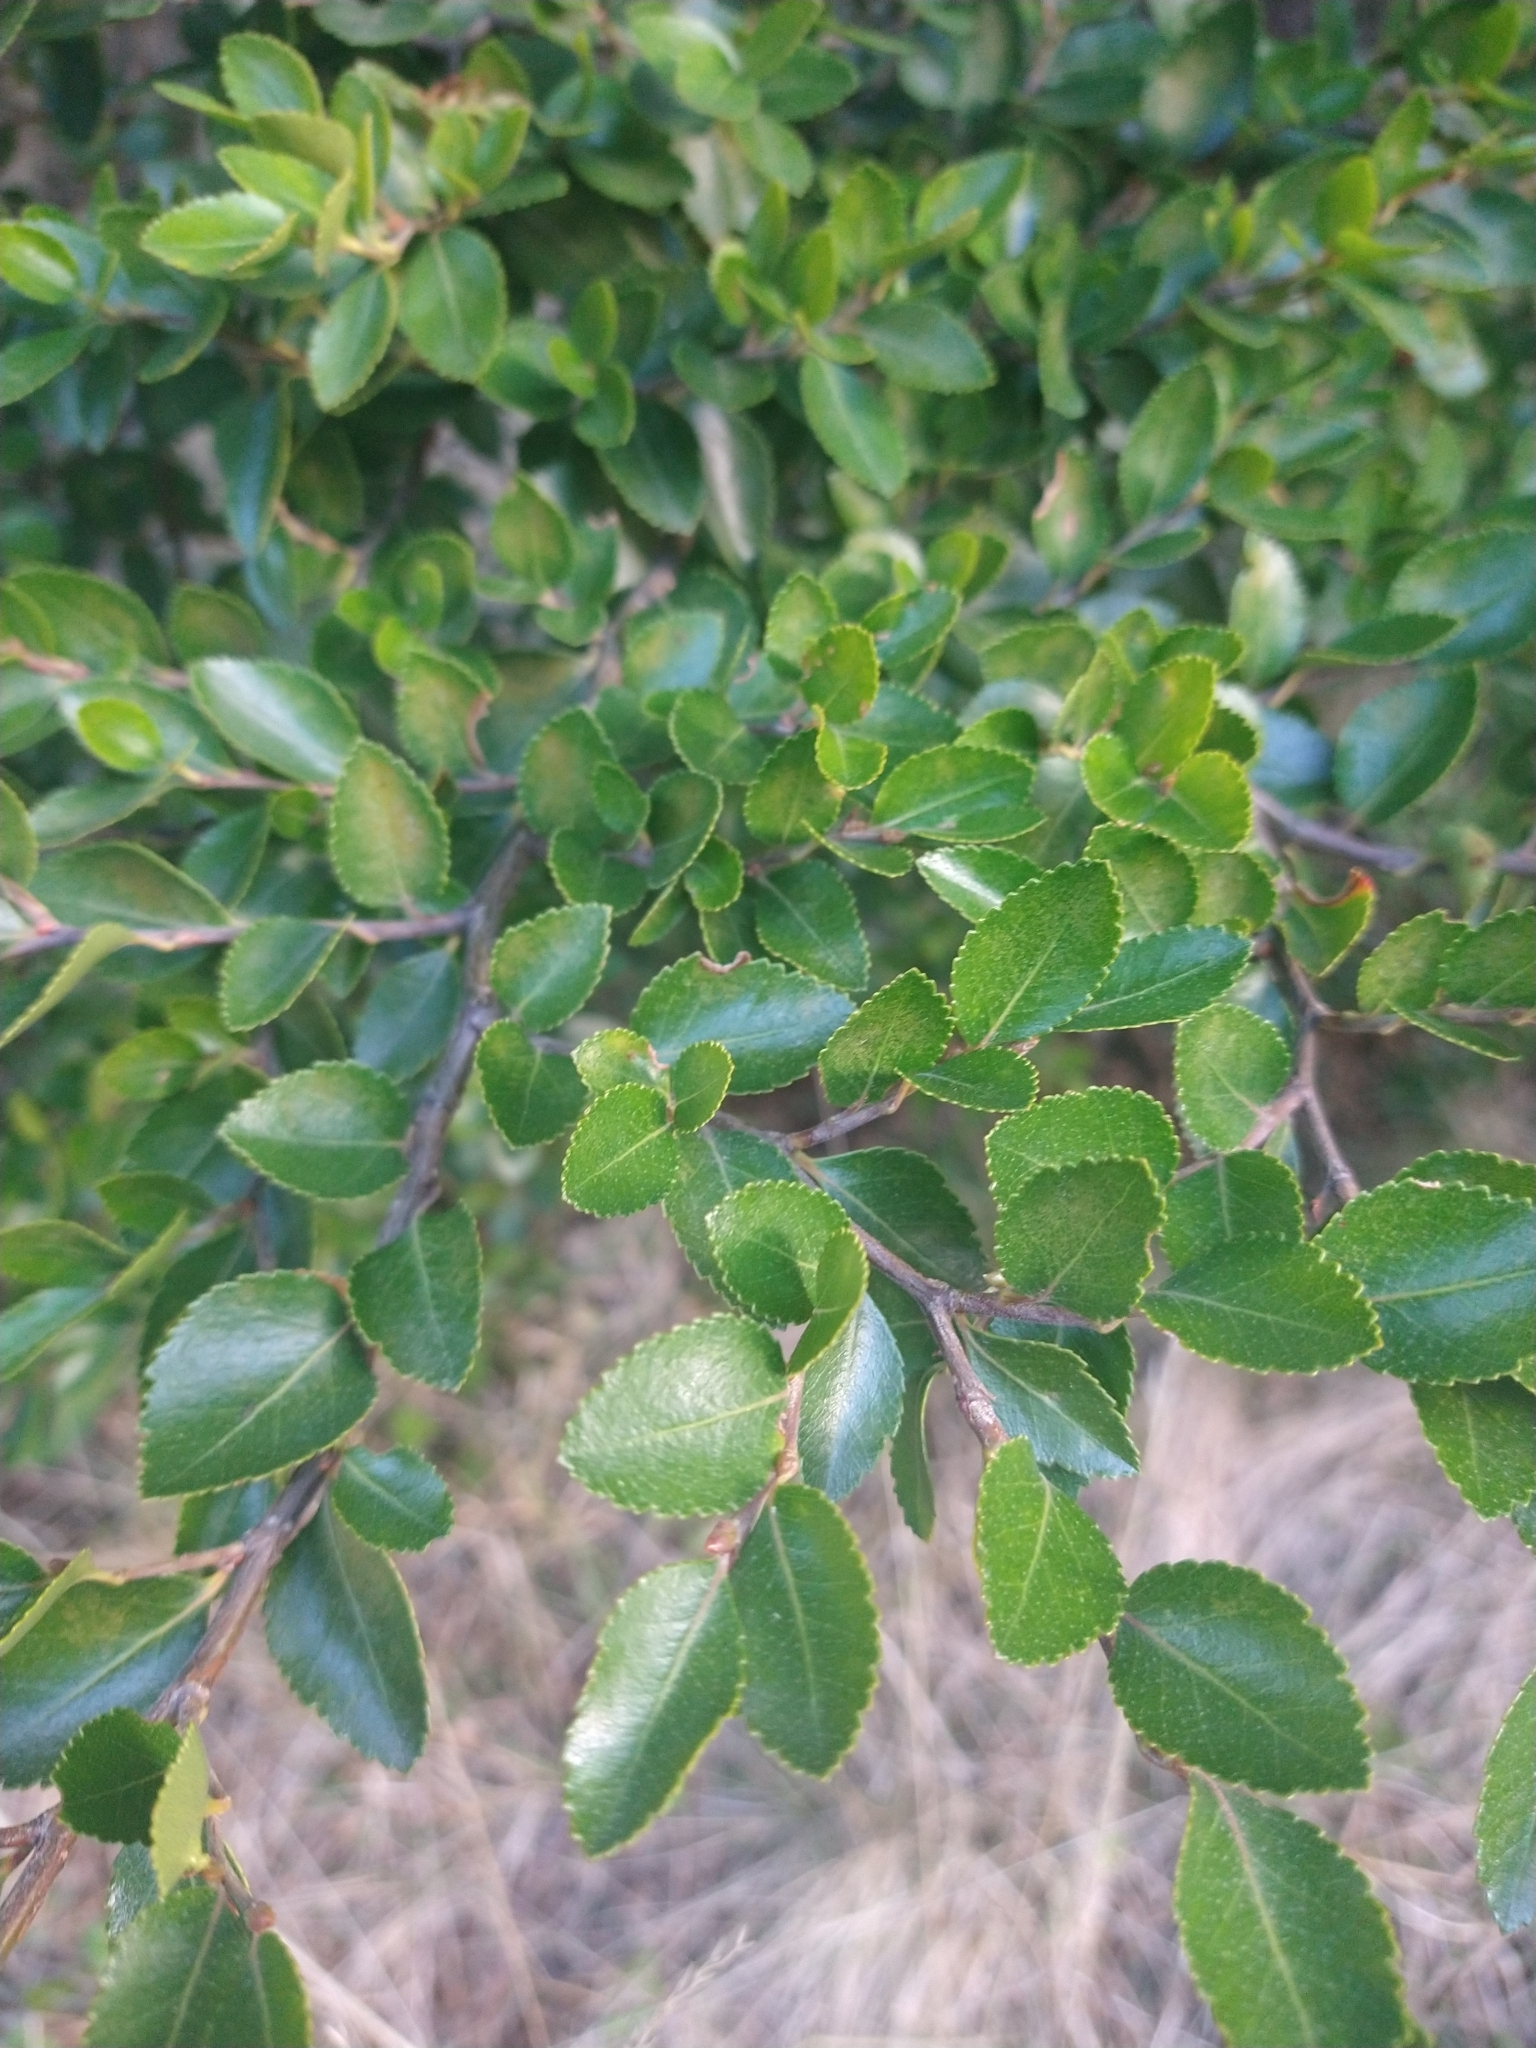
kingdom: Plantae
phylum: Tracheophyta
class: Magnoliopsida
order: Fagales
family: Nothofagaceae
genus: Nothofagus
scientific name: Nothofagus betuloides
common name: Magellan's beech
